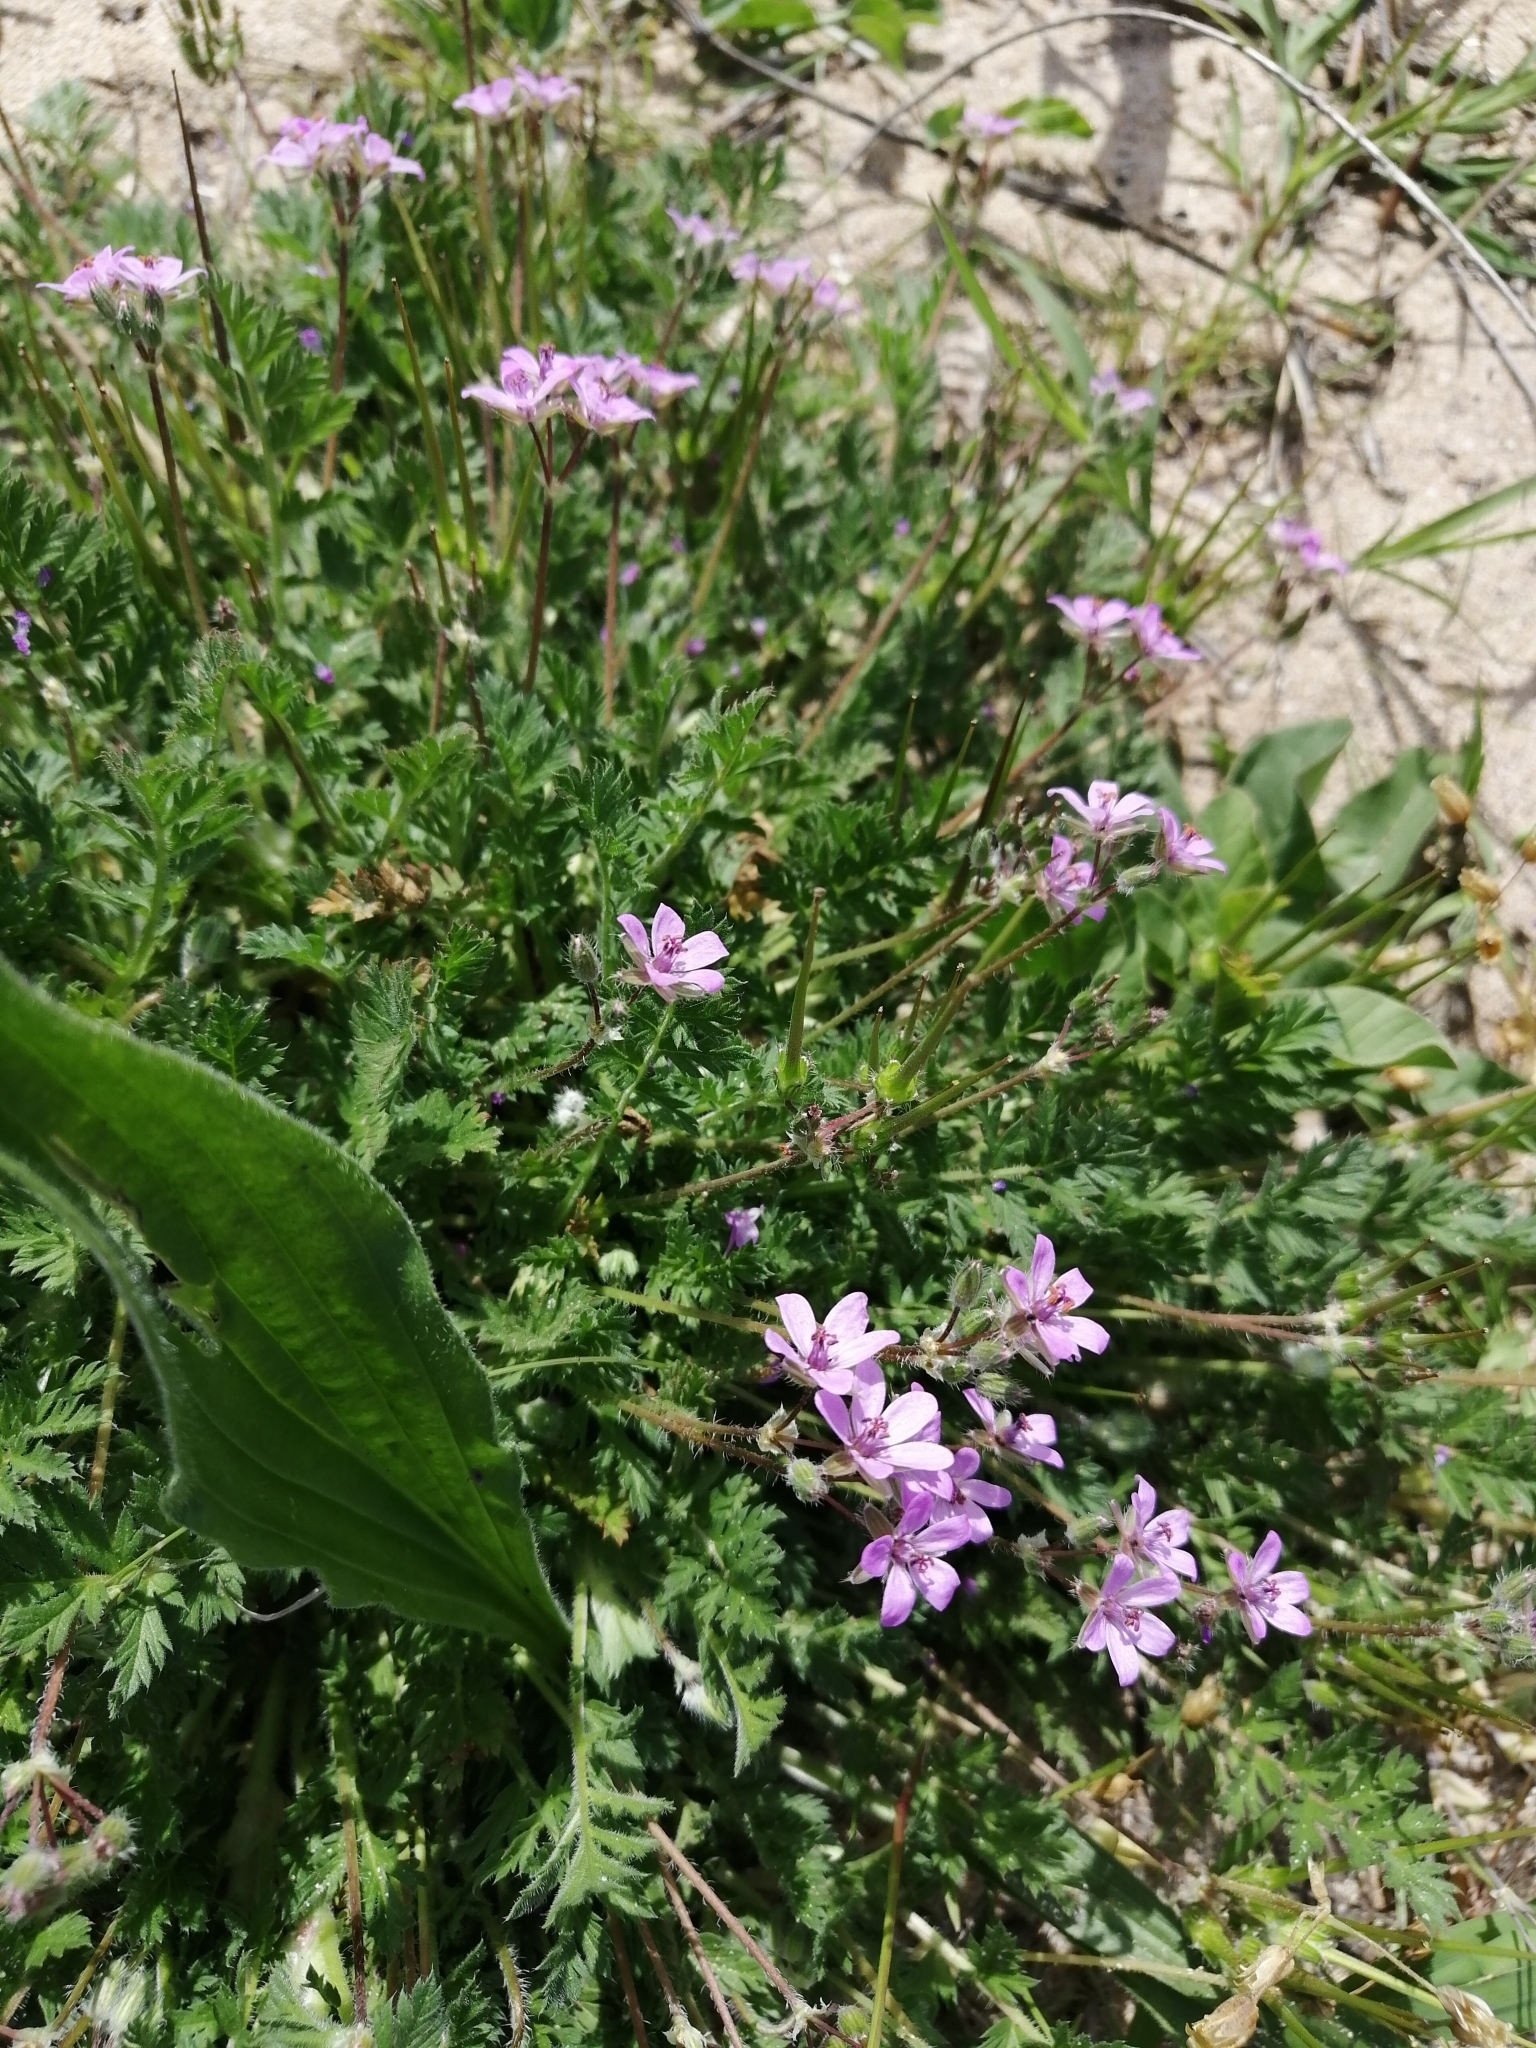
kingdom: Plantae
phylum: Tracheophyta
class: Magnoliopsida
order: Geraniales
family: Geraniaceae
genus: Erodium
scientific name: Erodium cicutarium
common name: Common stork's-bill
